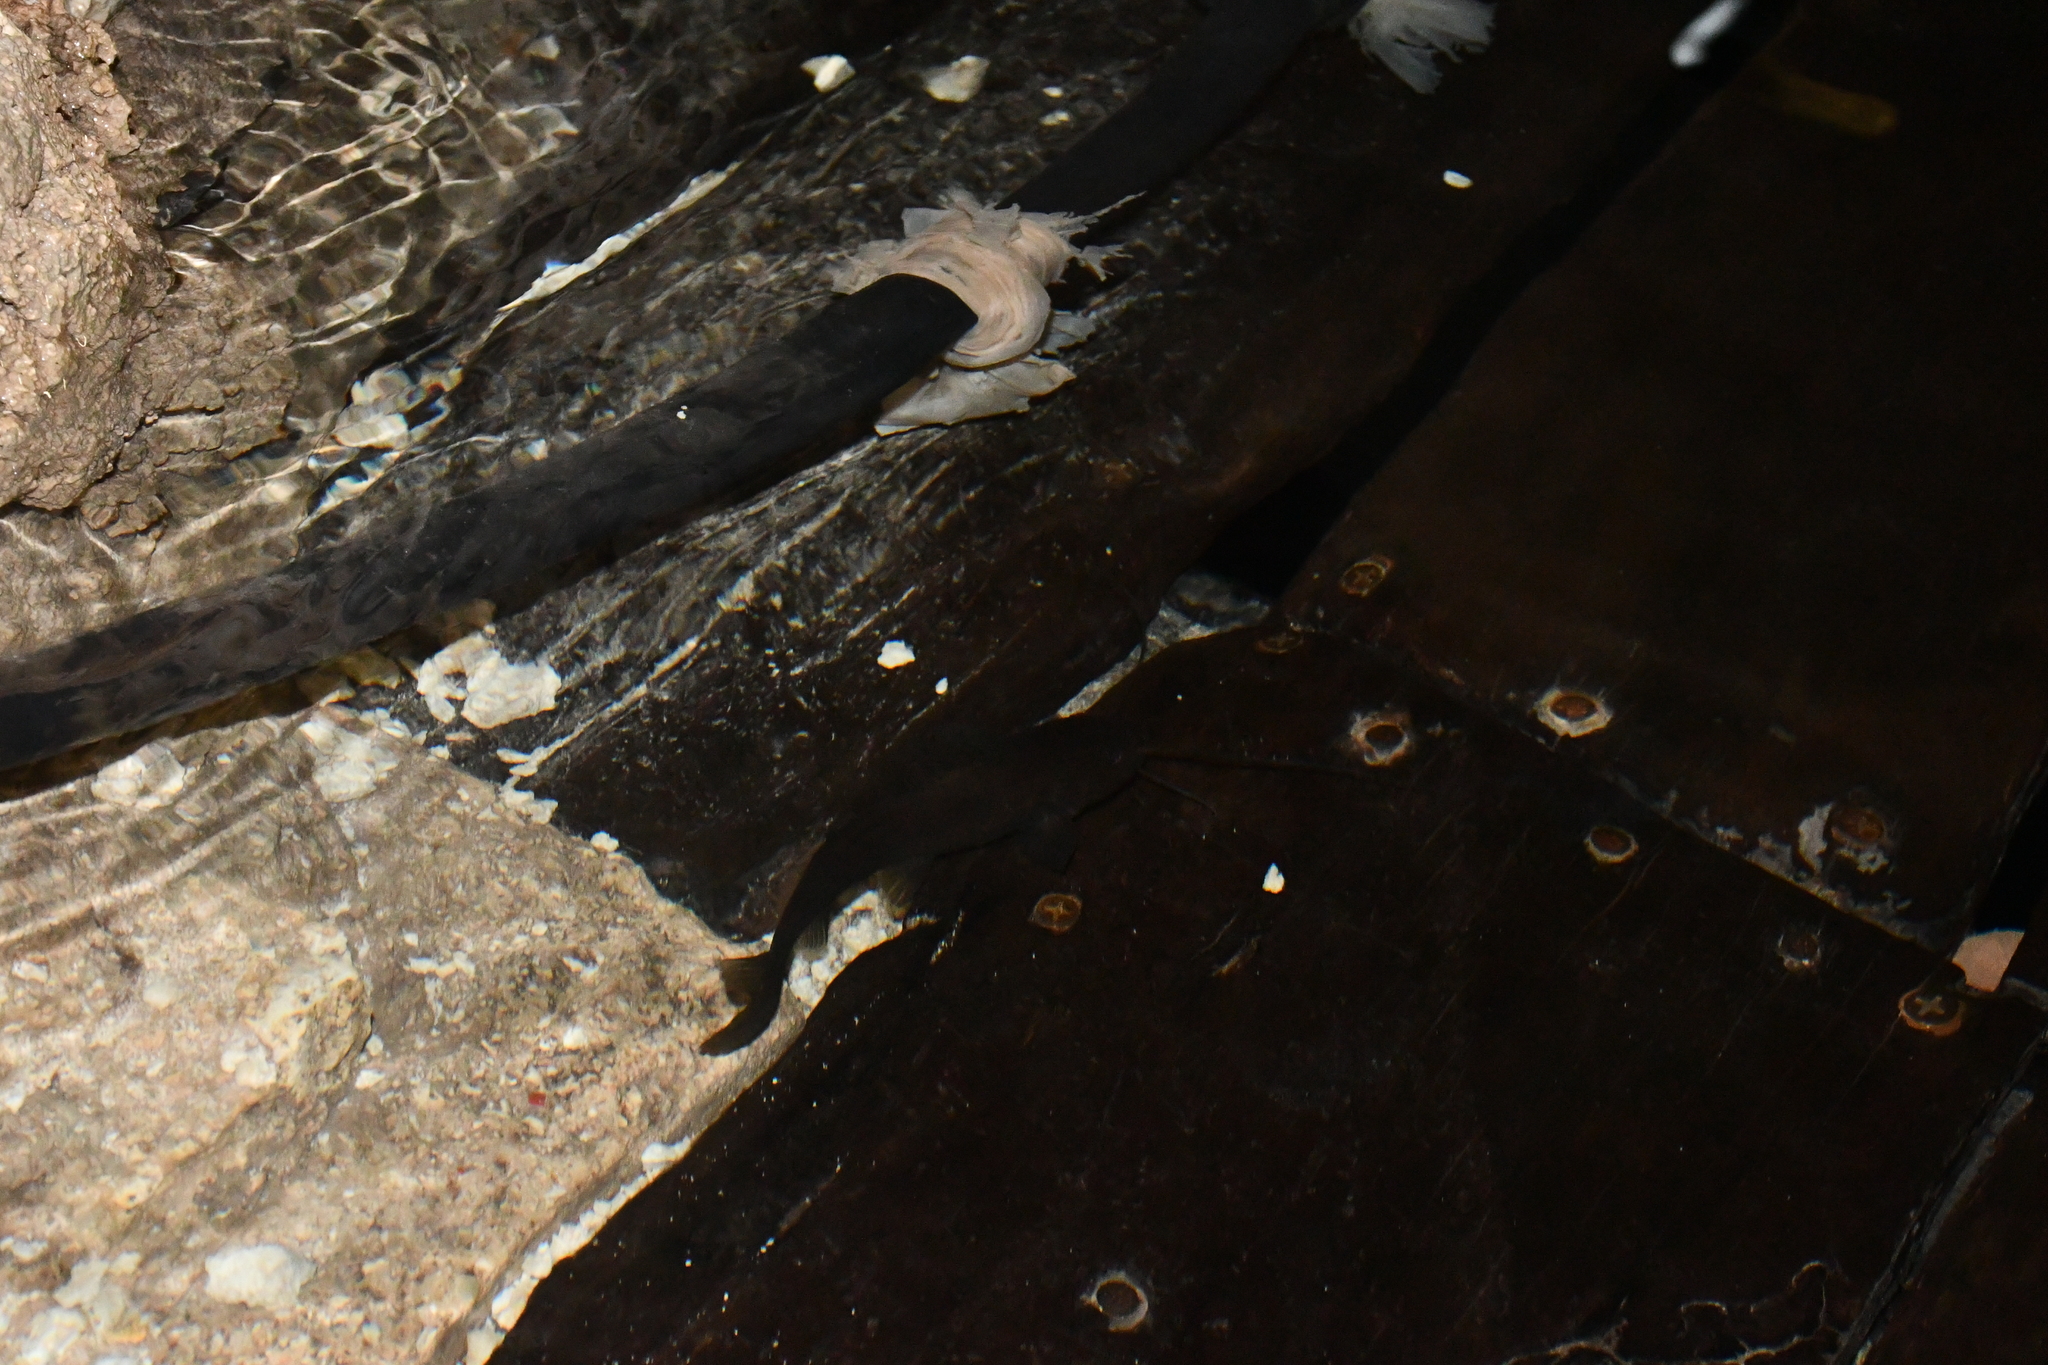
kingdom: Animalia
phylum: Chordata
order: Siluriformes
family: Heptapteridae
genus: Rhamdia
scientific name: Rhamdia guatemalensis
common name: Pale catfish
